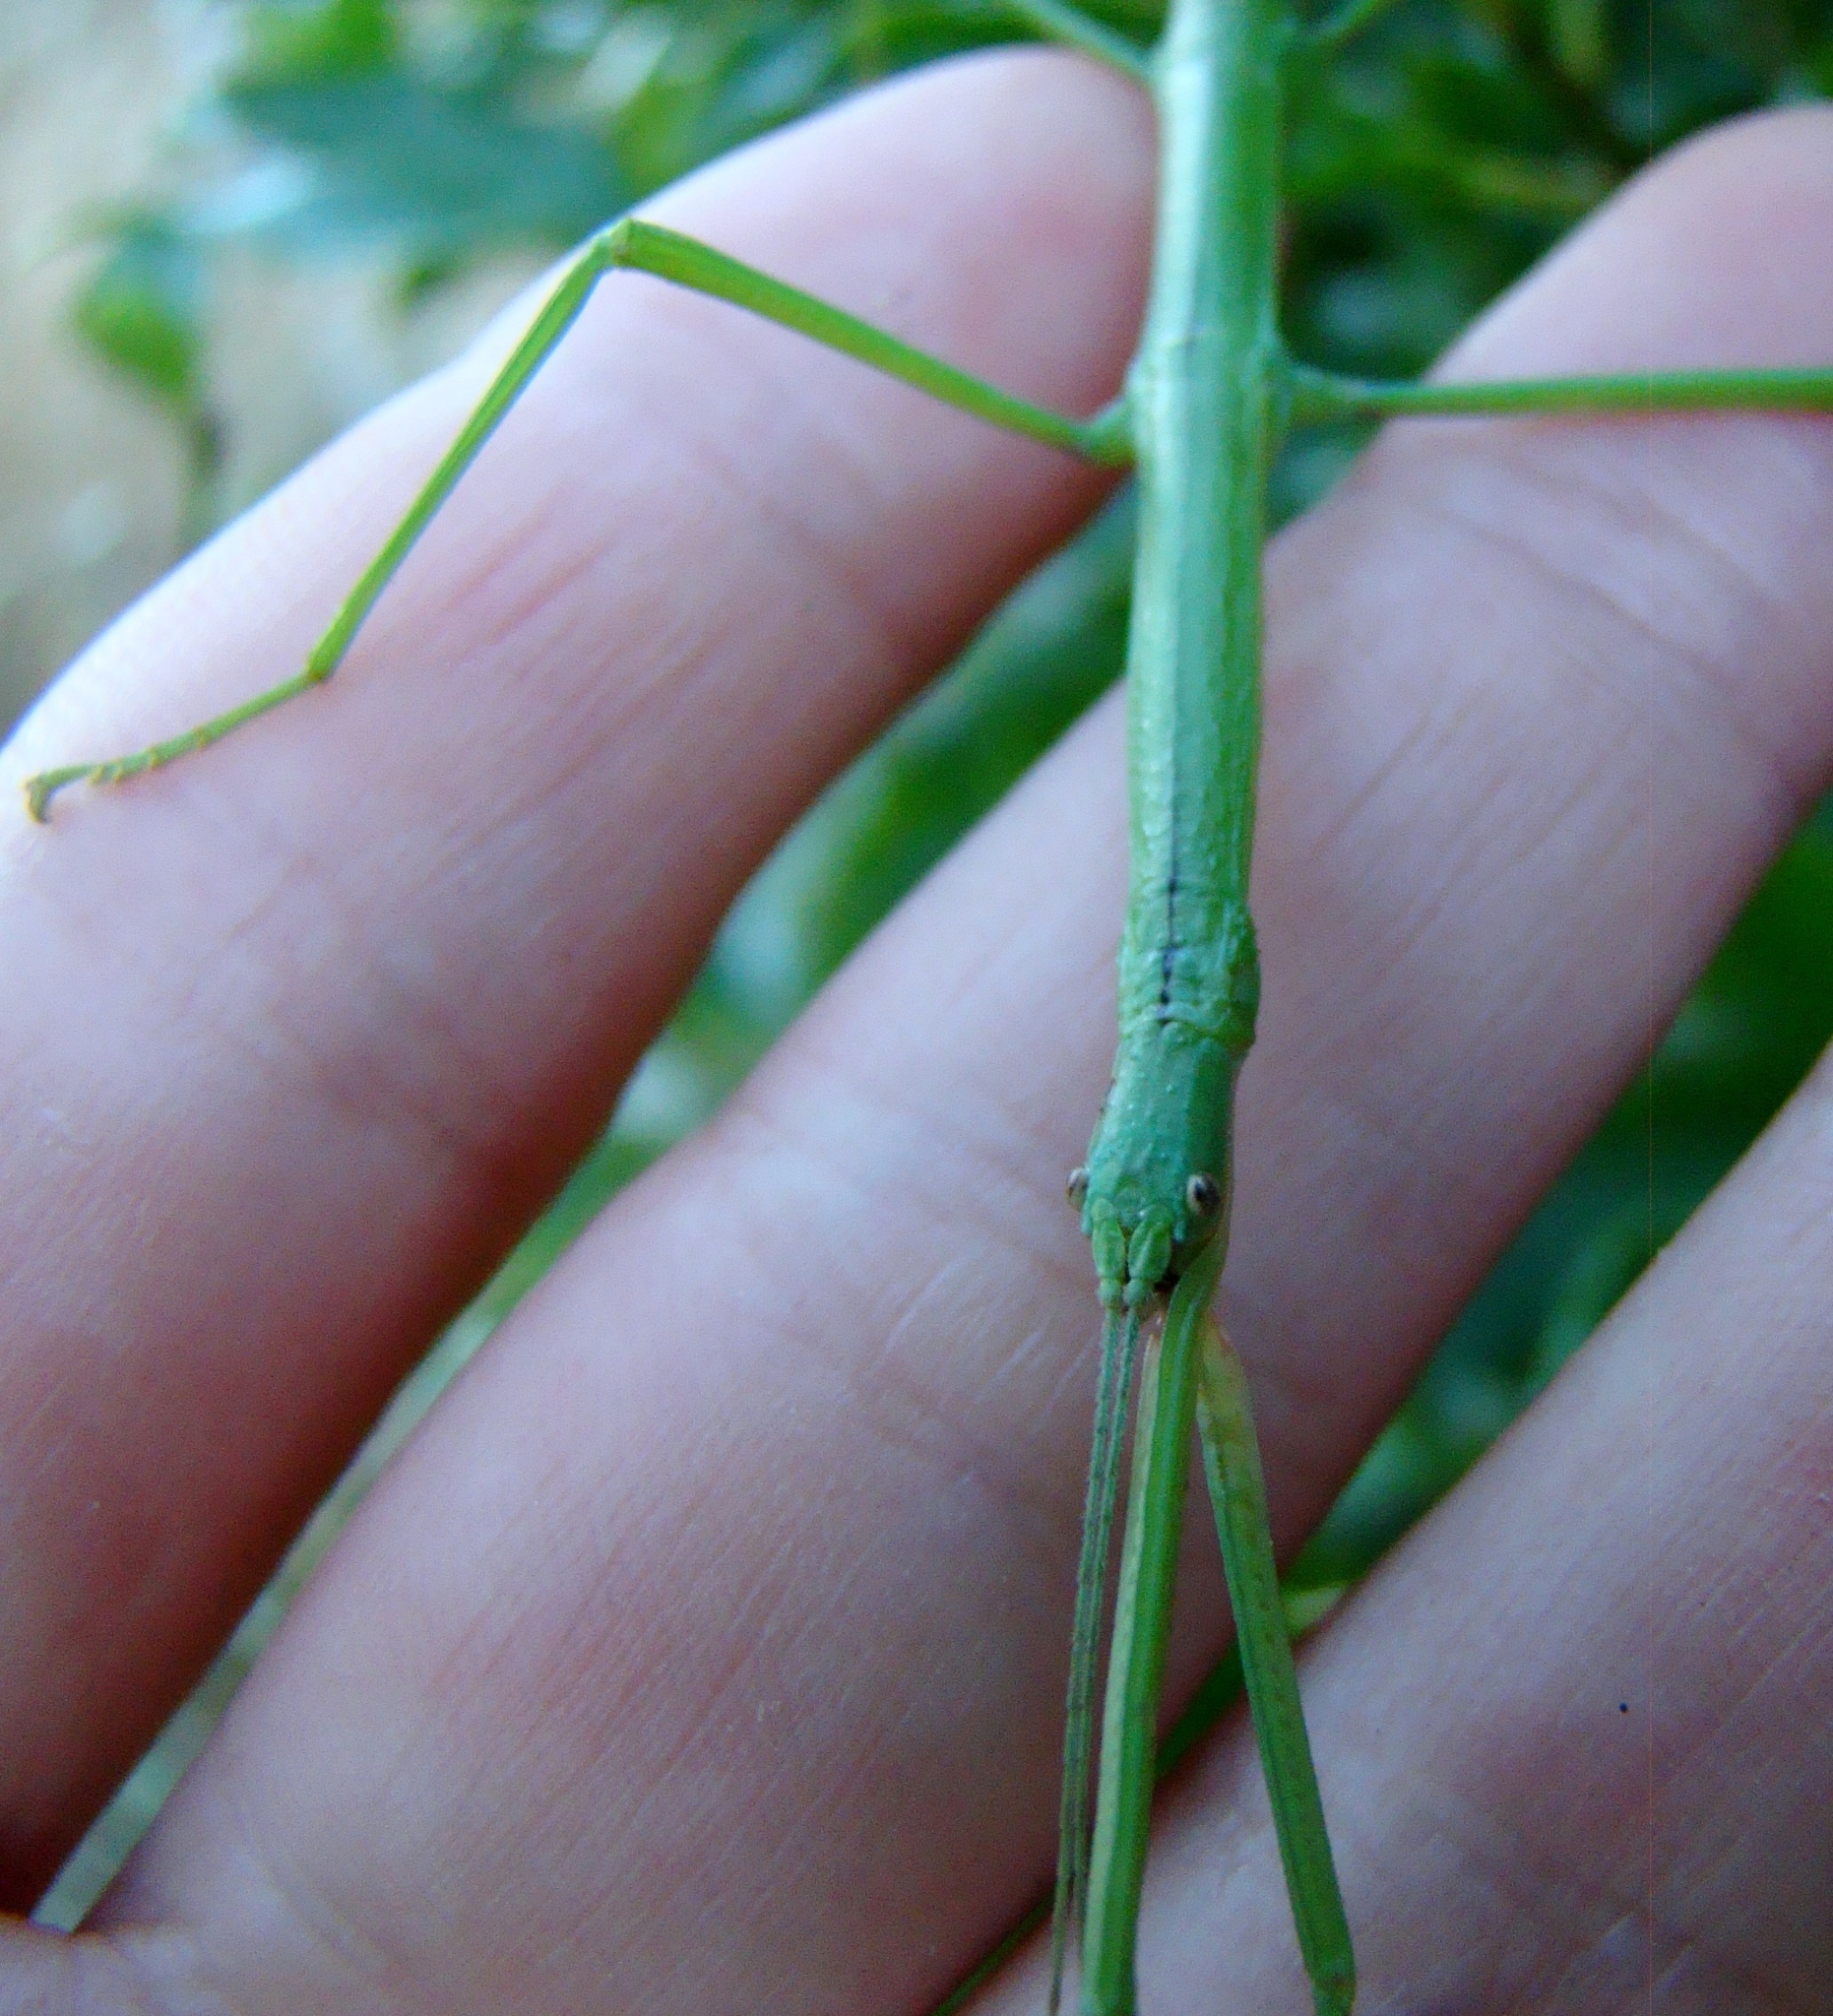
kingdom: Animalia
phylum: Arthropoda
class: Insecta
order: Phasmida
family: Phasmatidae
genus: Clitarchus
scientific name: Clitarchus hookeri
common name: Smooth stick insect
